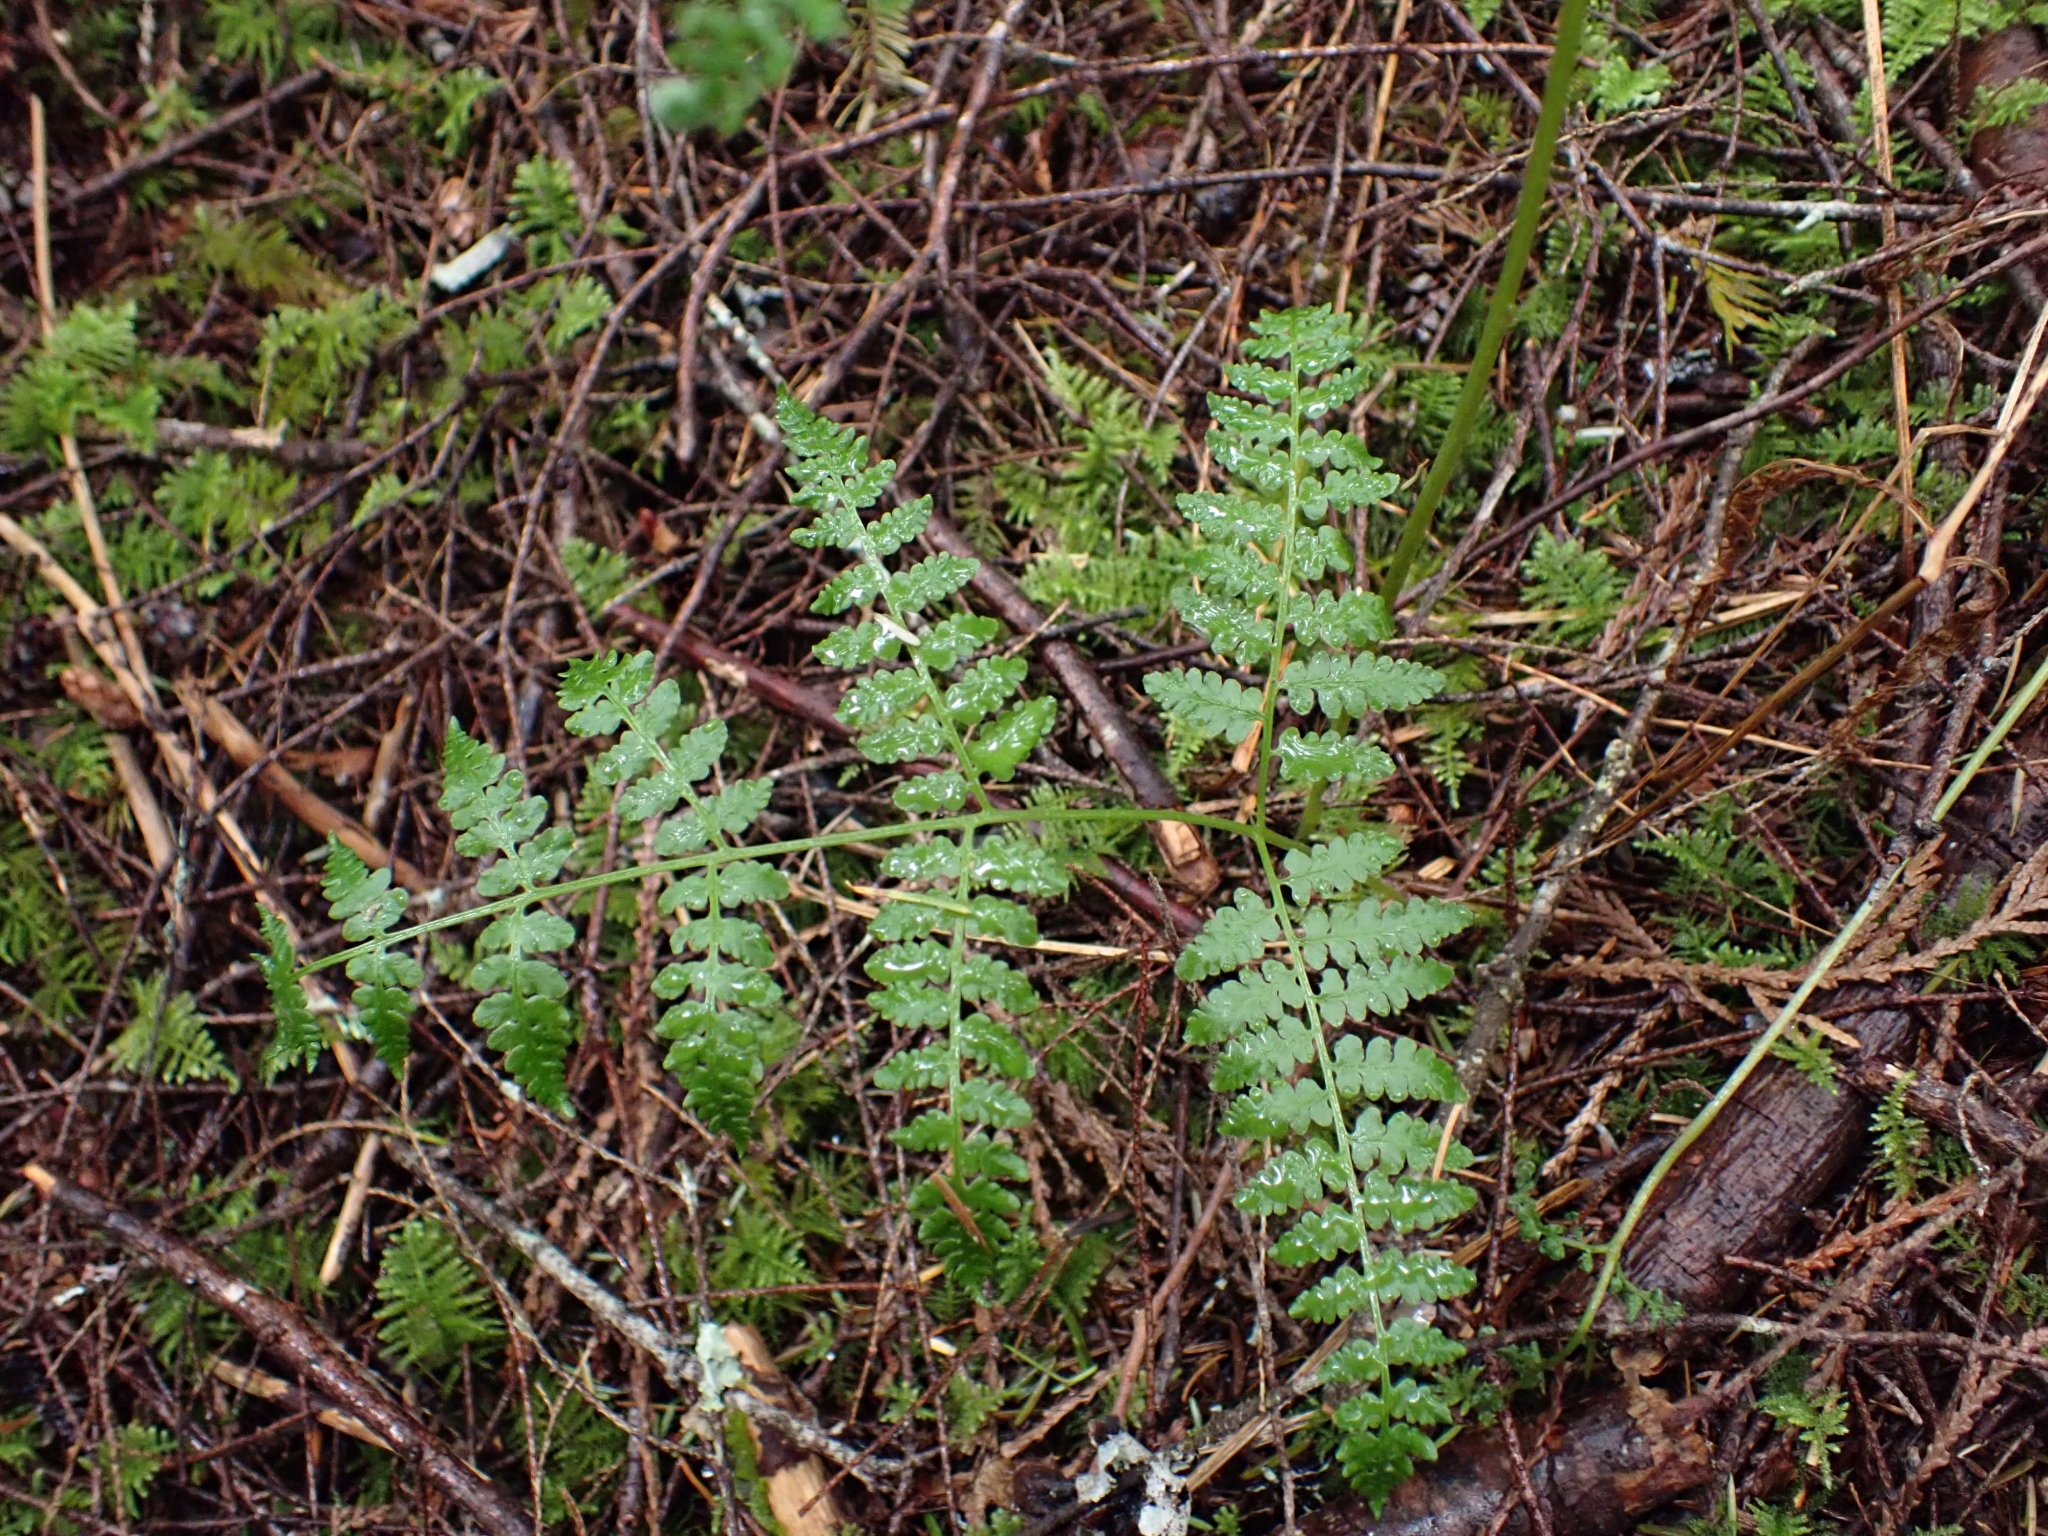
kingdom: Plantae
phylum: Tracheophyta
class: Polypodiopsida
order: Polypodiales
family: Dennstaedtiaceae
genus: Pteridium
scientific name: Pteridium aquilinum
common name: Bracken
